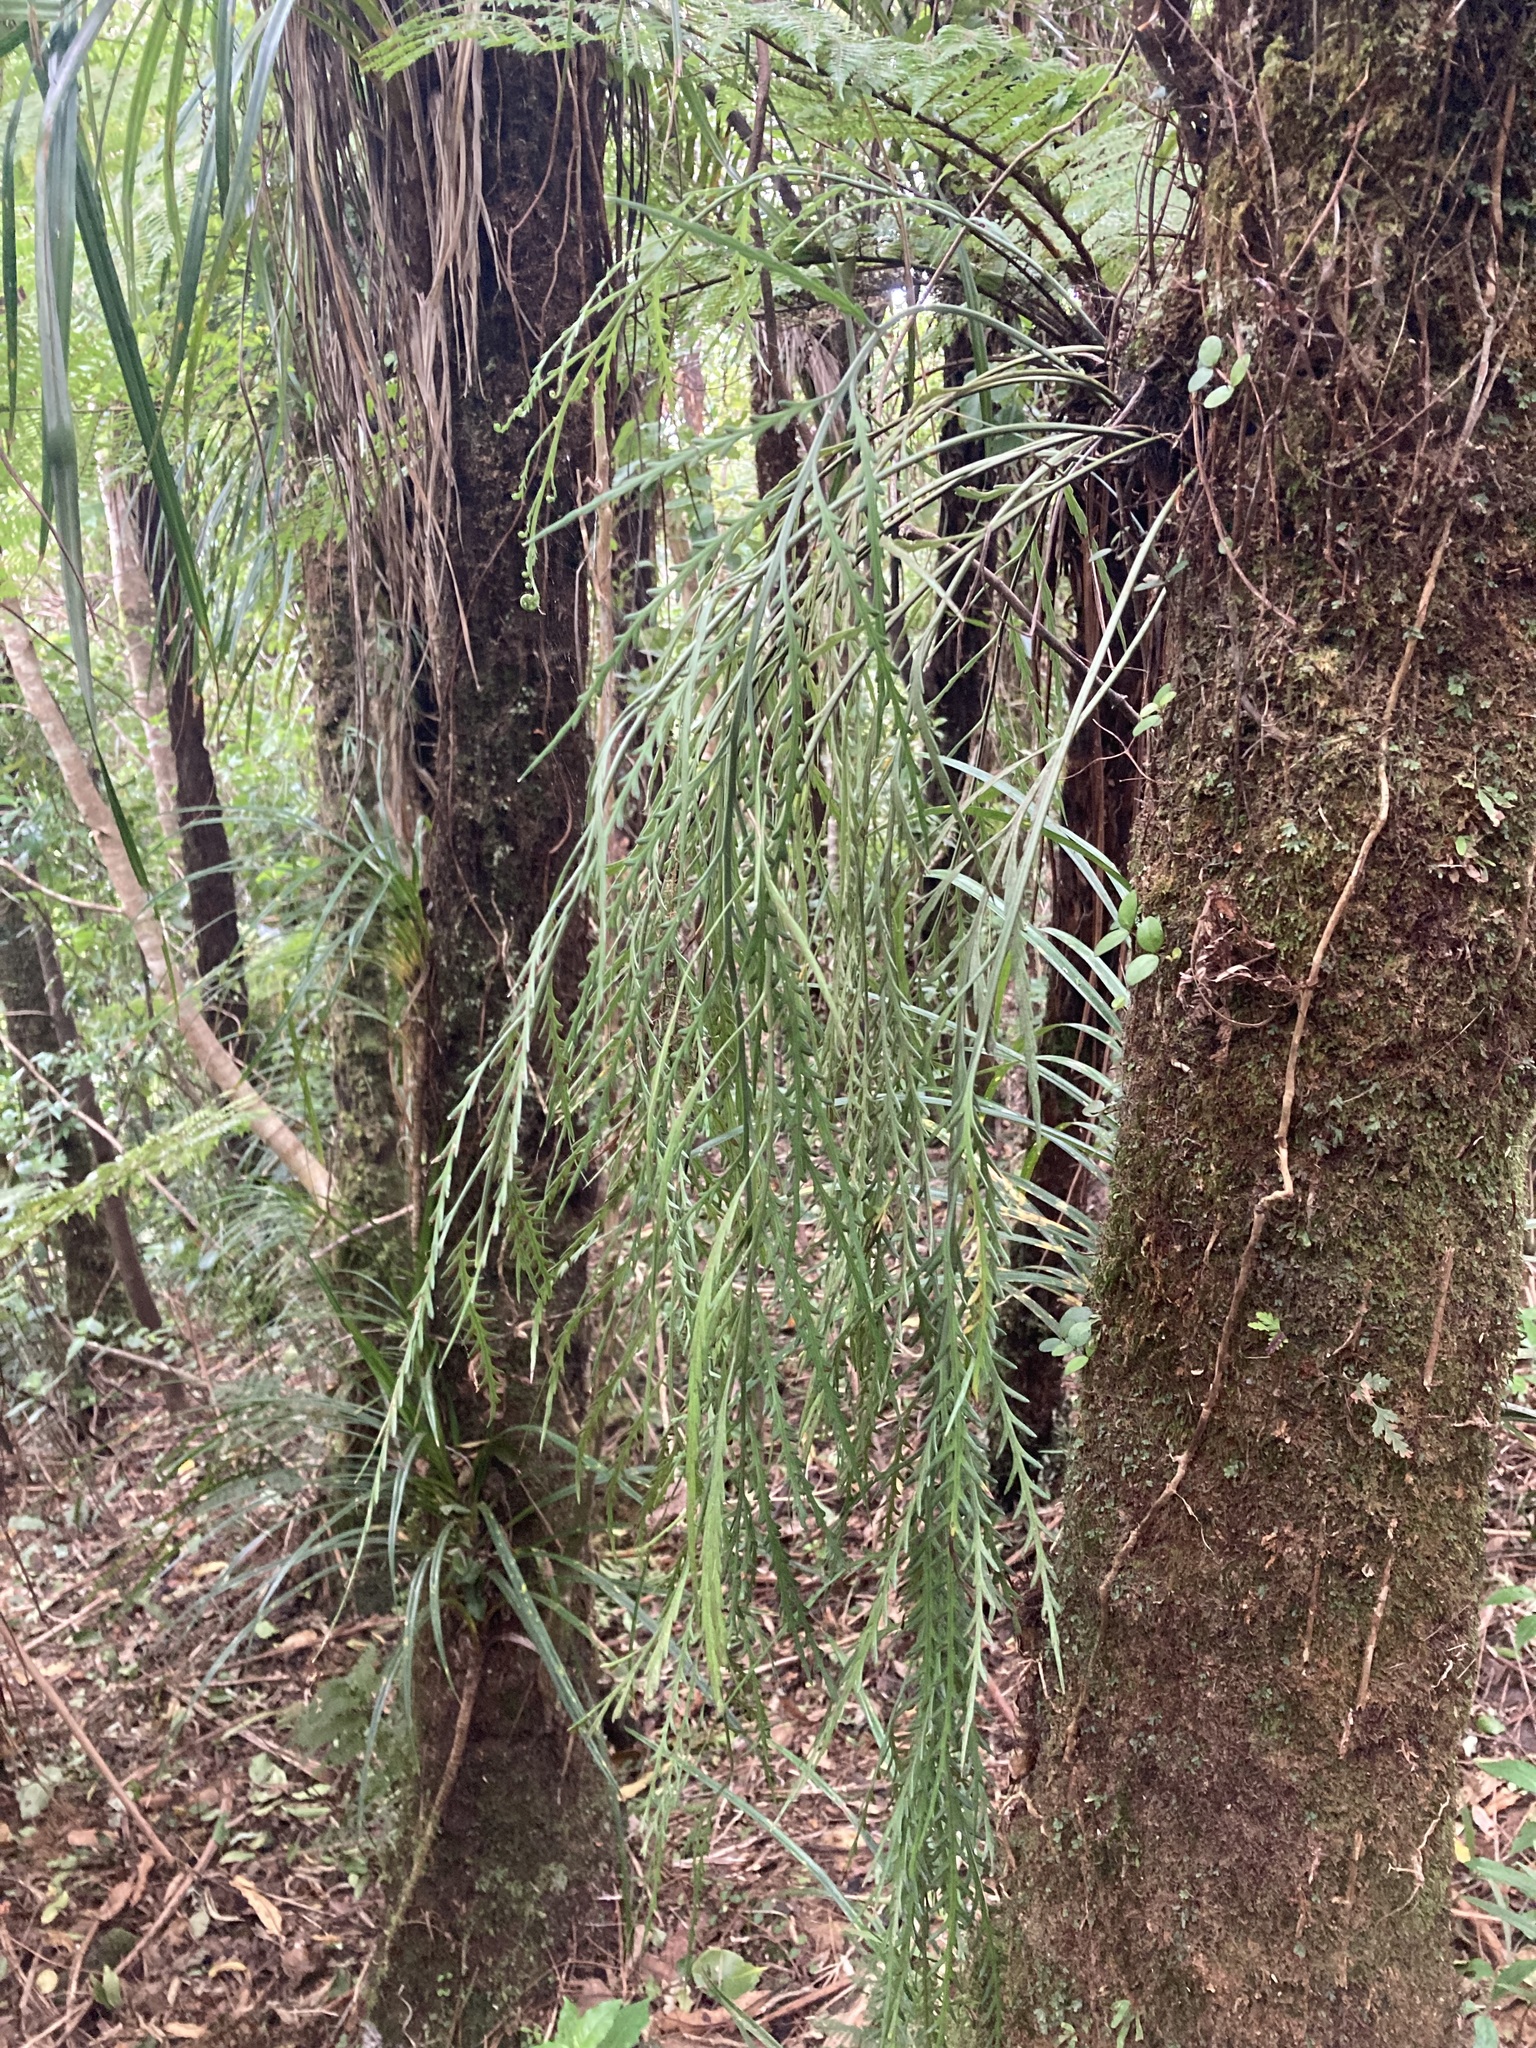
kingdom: Plantae
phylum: Tracheophyta
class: Polypodiopsida
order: Polypodiales
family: Aspleniaceae
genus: Asplenium
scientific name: Asplenium flaccidum
